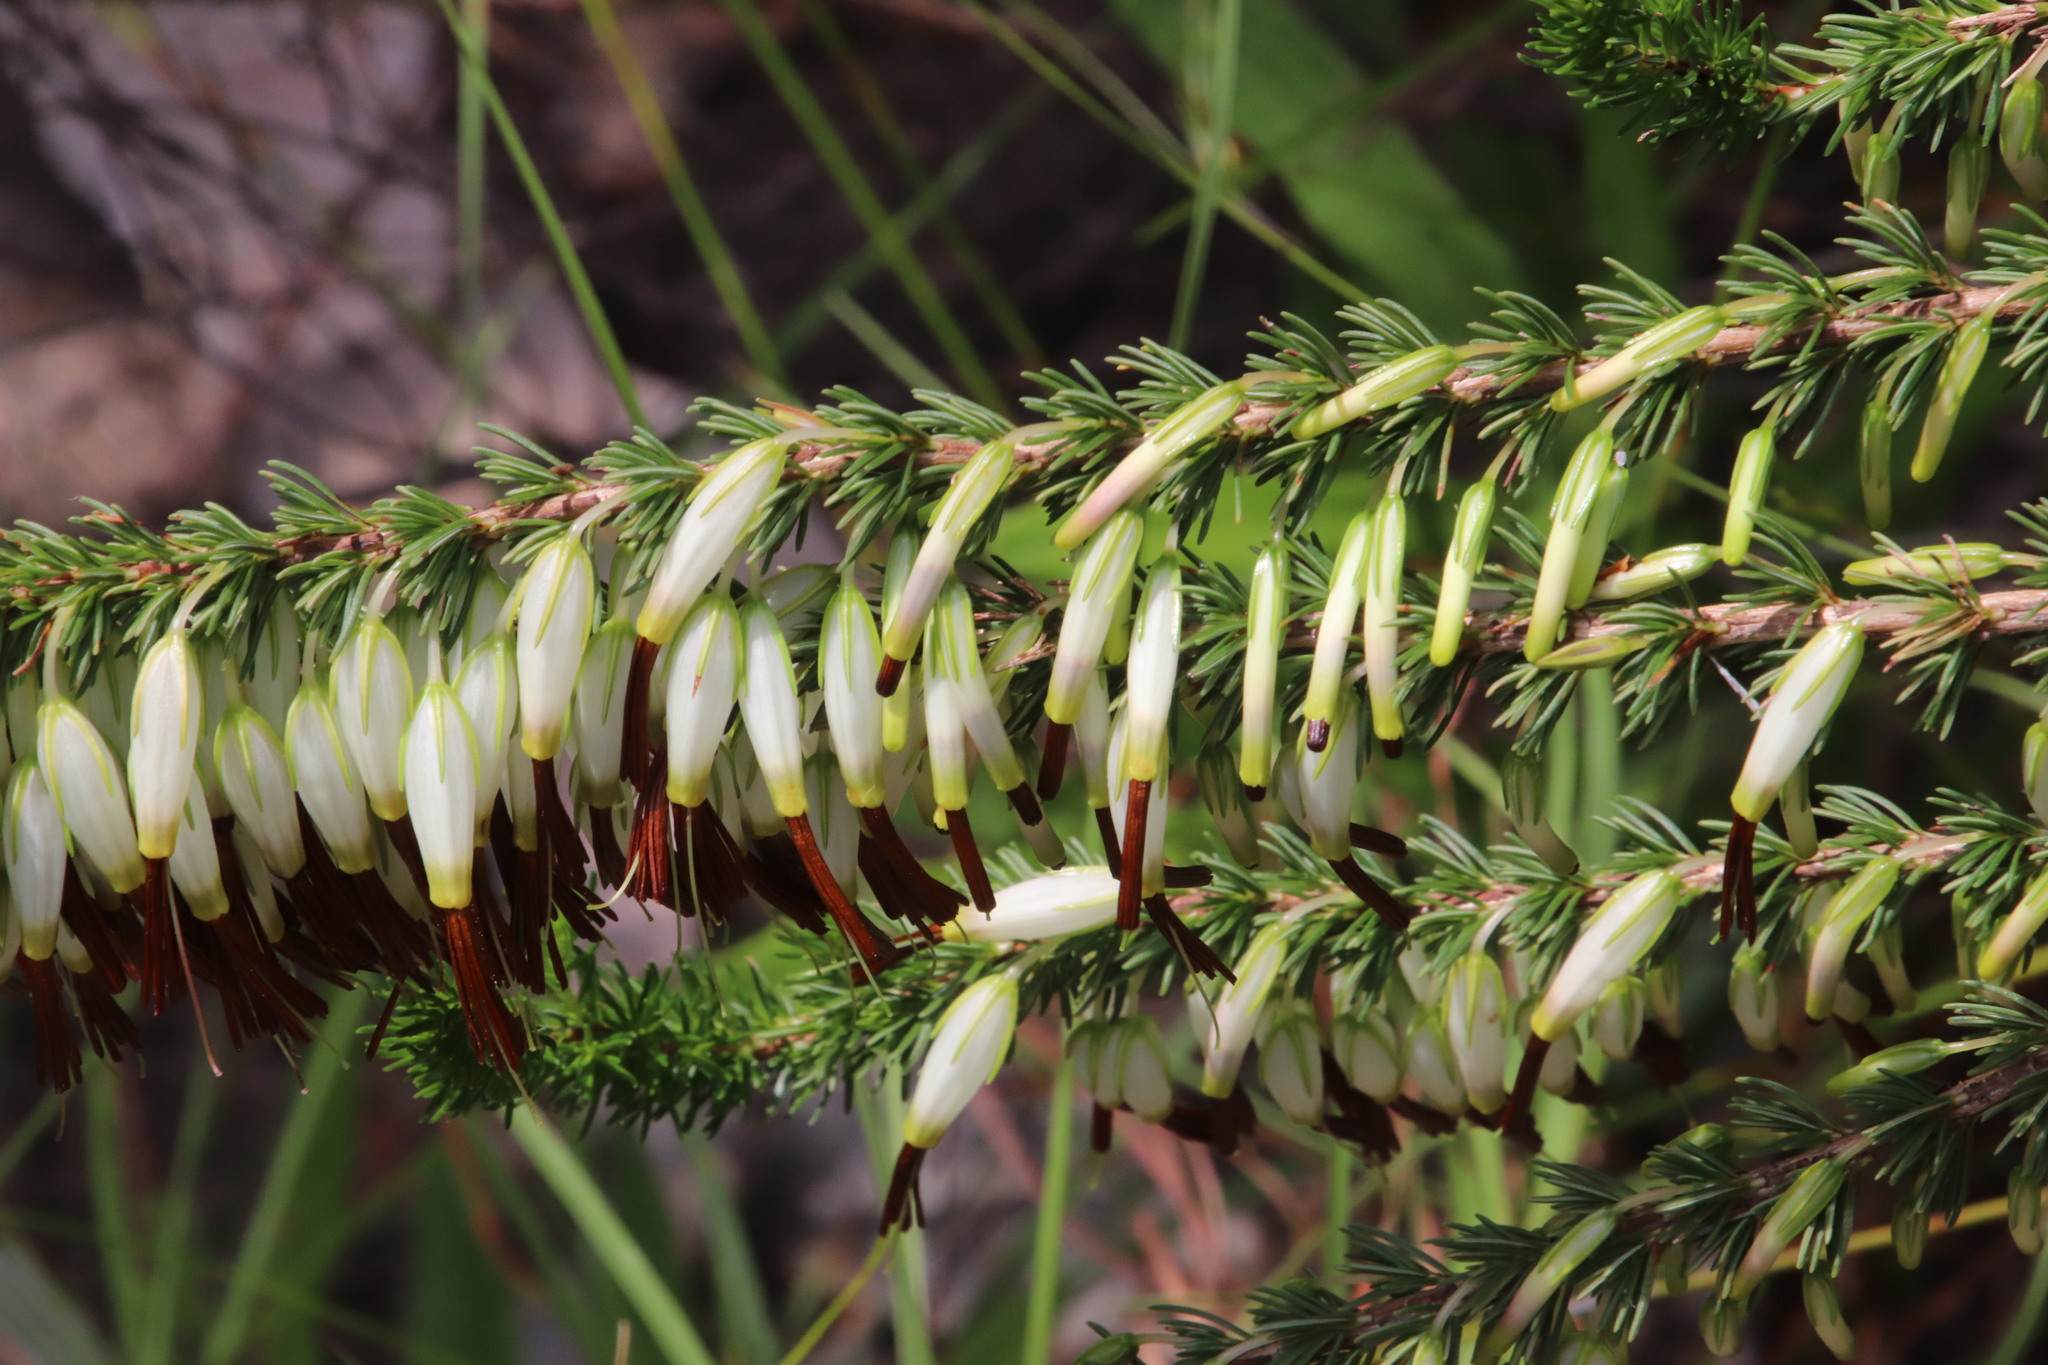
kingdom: Plantae
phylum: Tracheophyta
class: Magnoliopsida
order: Ericales
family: Ericaceae
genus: Erica
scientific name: Erica plukenetii
